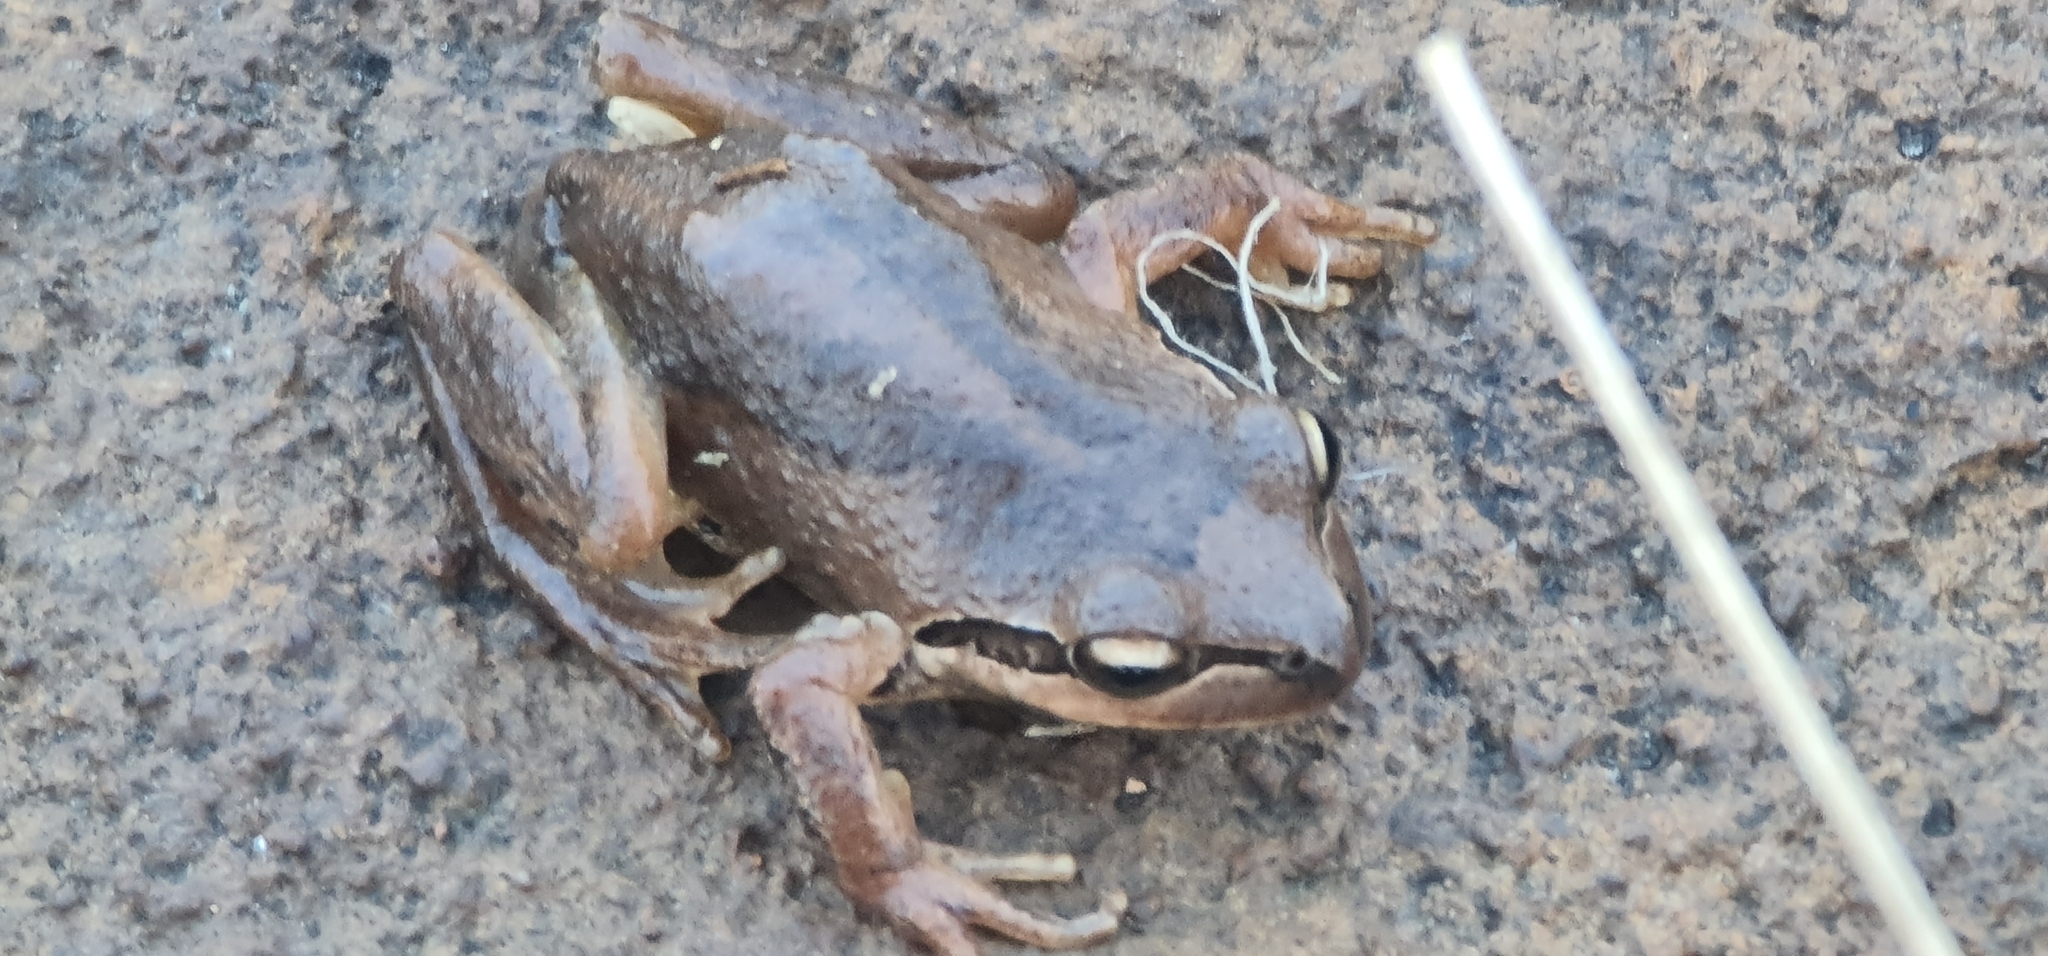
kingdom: Animalia
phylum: Chordata
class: Amphibia
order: Anura
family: Pelodryadidae
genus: Litoria
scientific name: Litoria verreauxii
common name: Alpine tree frog
